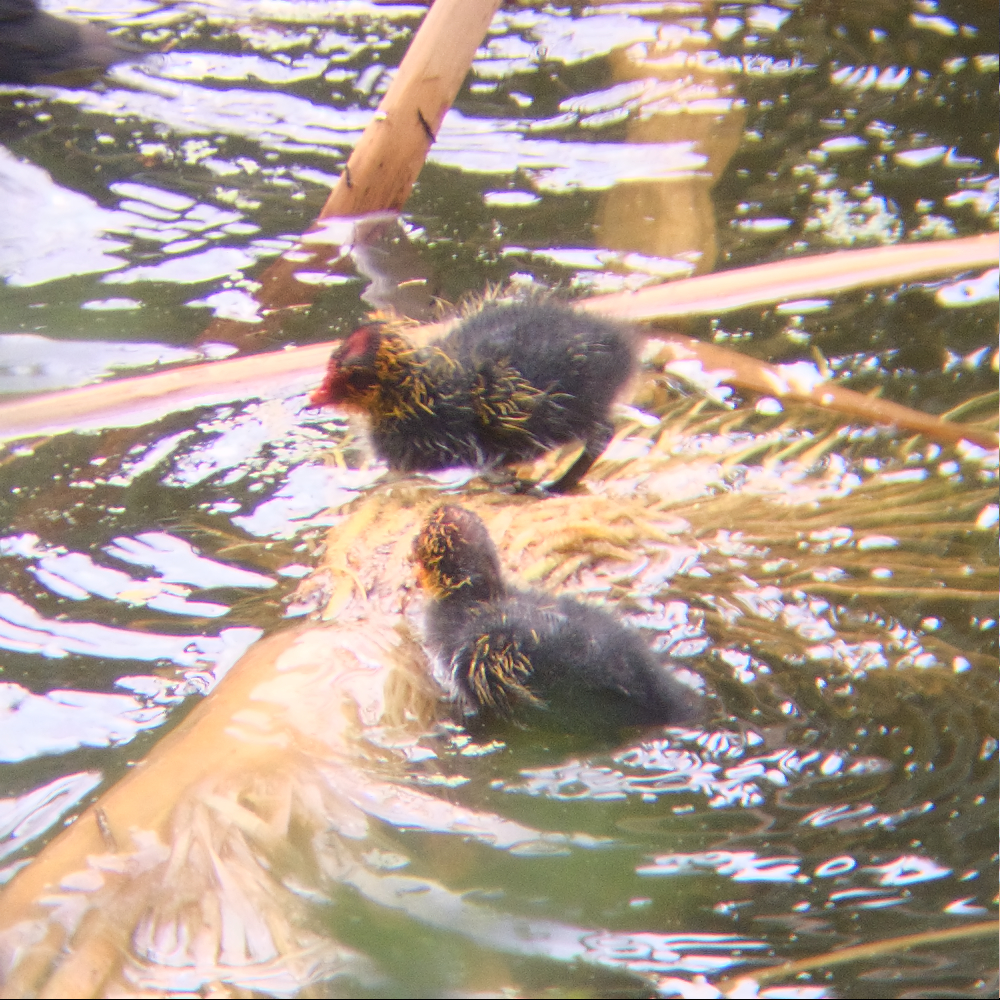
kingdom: Animalia
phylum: Chordata
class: Aves
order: Gruiformes
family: Rallidae
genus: Fulica
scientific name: Fulica atra
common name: Eurasian coot
